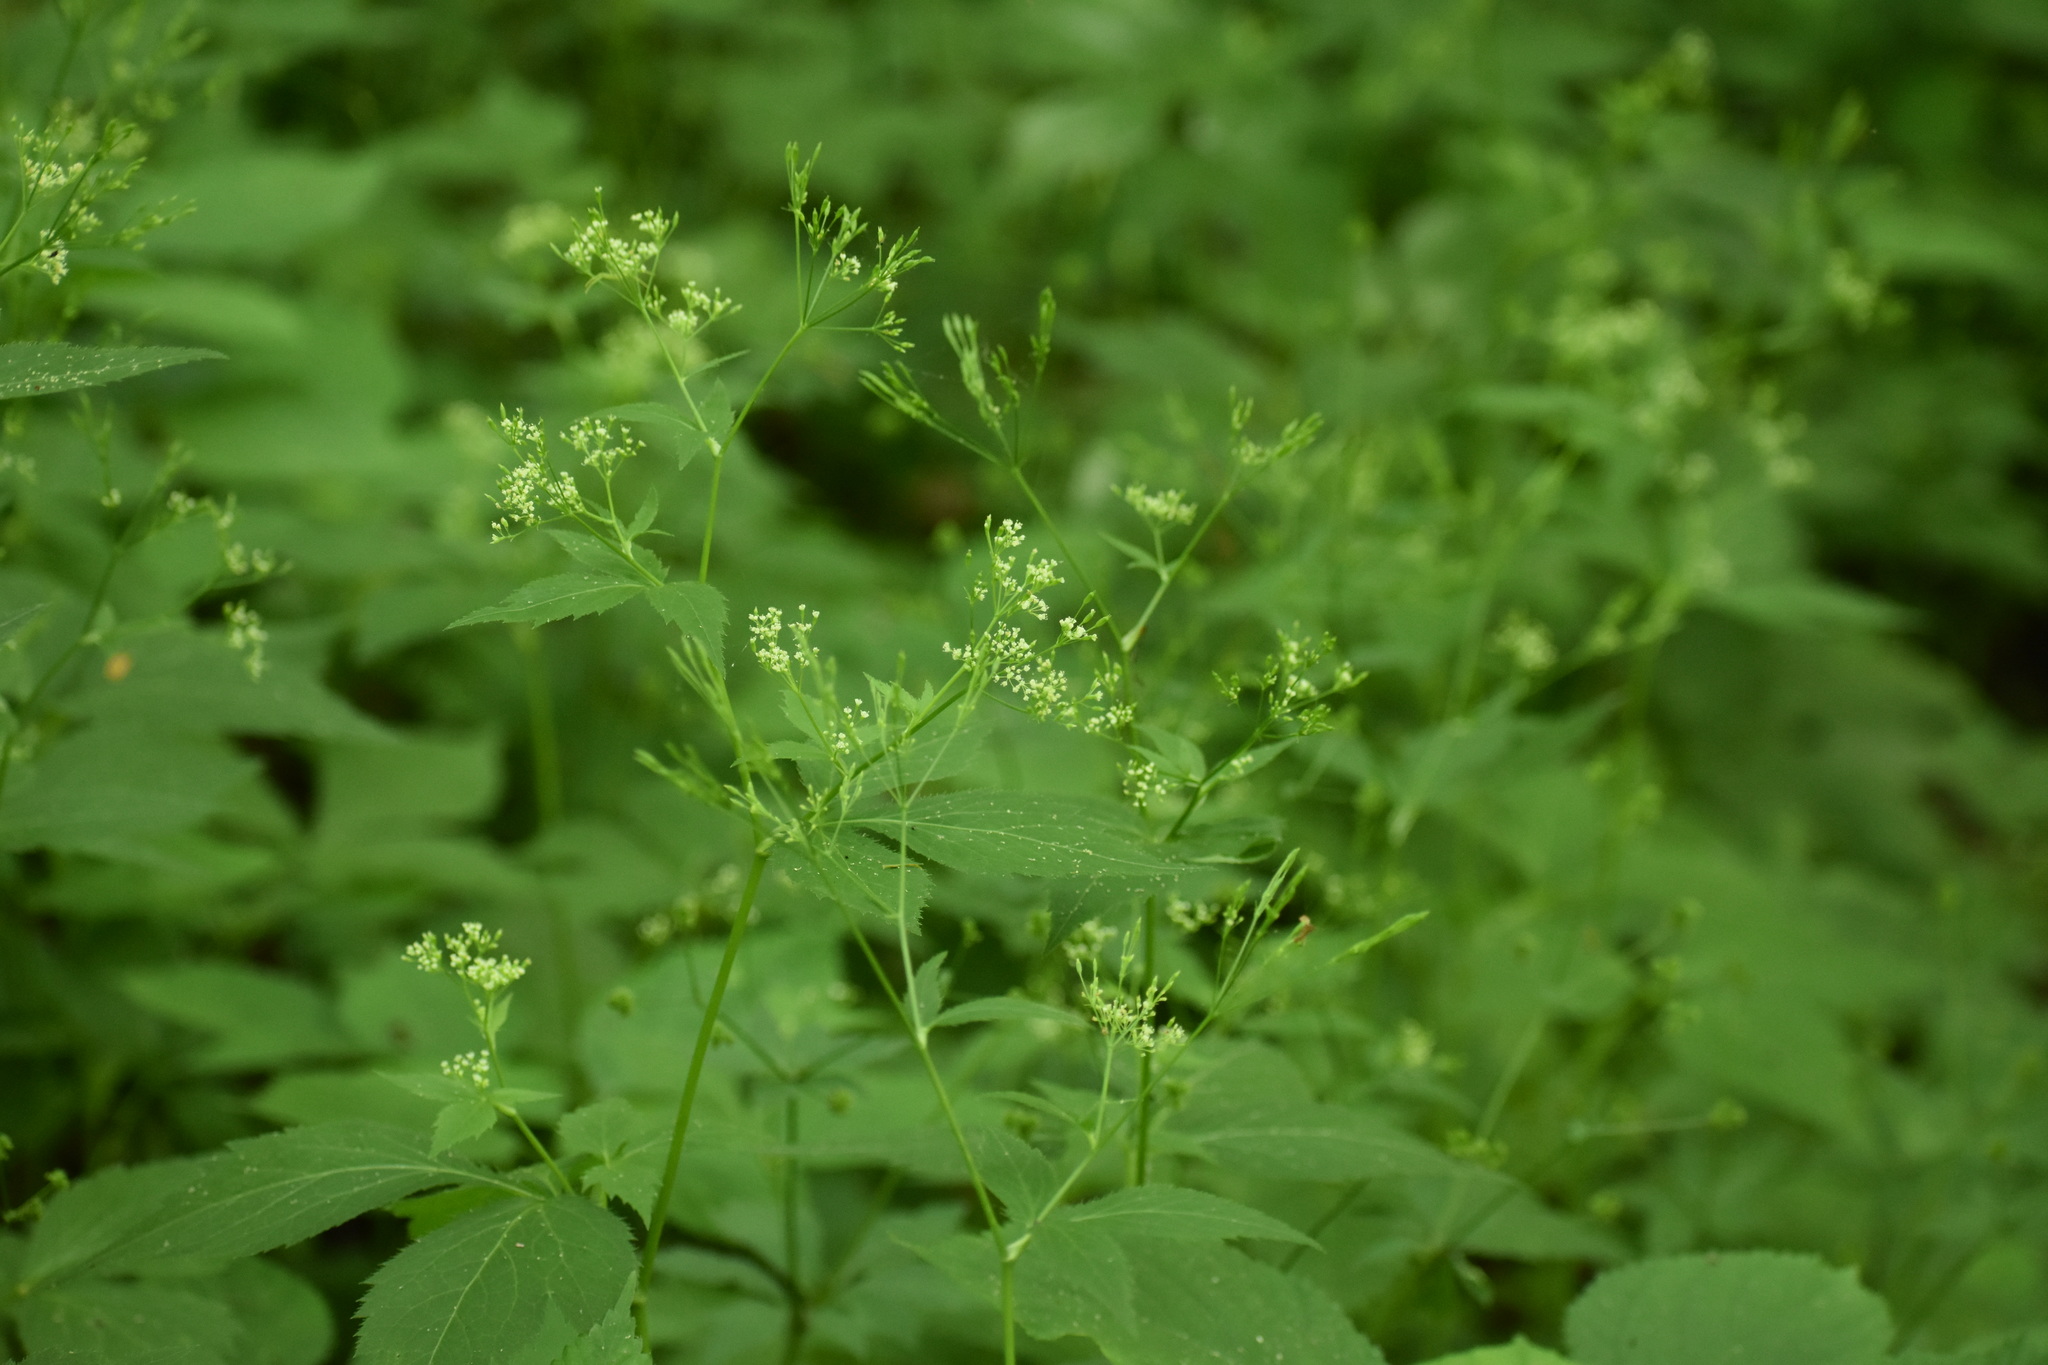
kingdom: Plantae
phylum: Tracheophyta
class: Magnoliopsida
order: Apiales
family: Apiaceae
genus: Cryptotaenia
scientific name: Cryptotaenia canadensis
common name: Honewort
